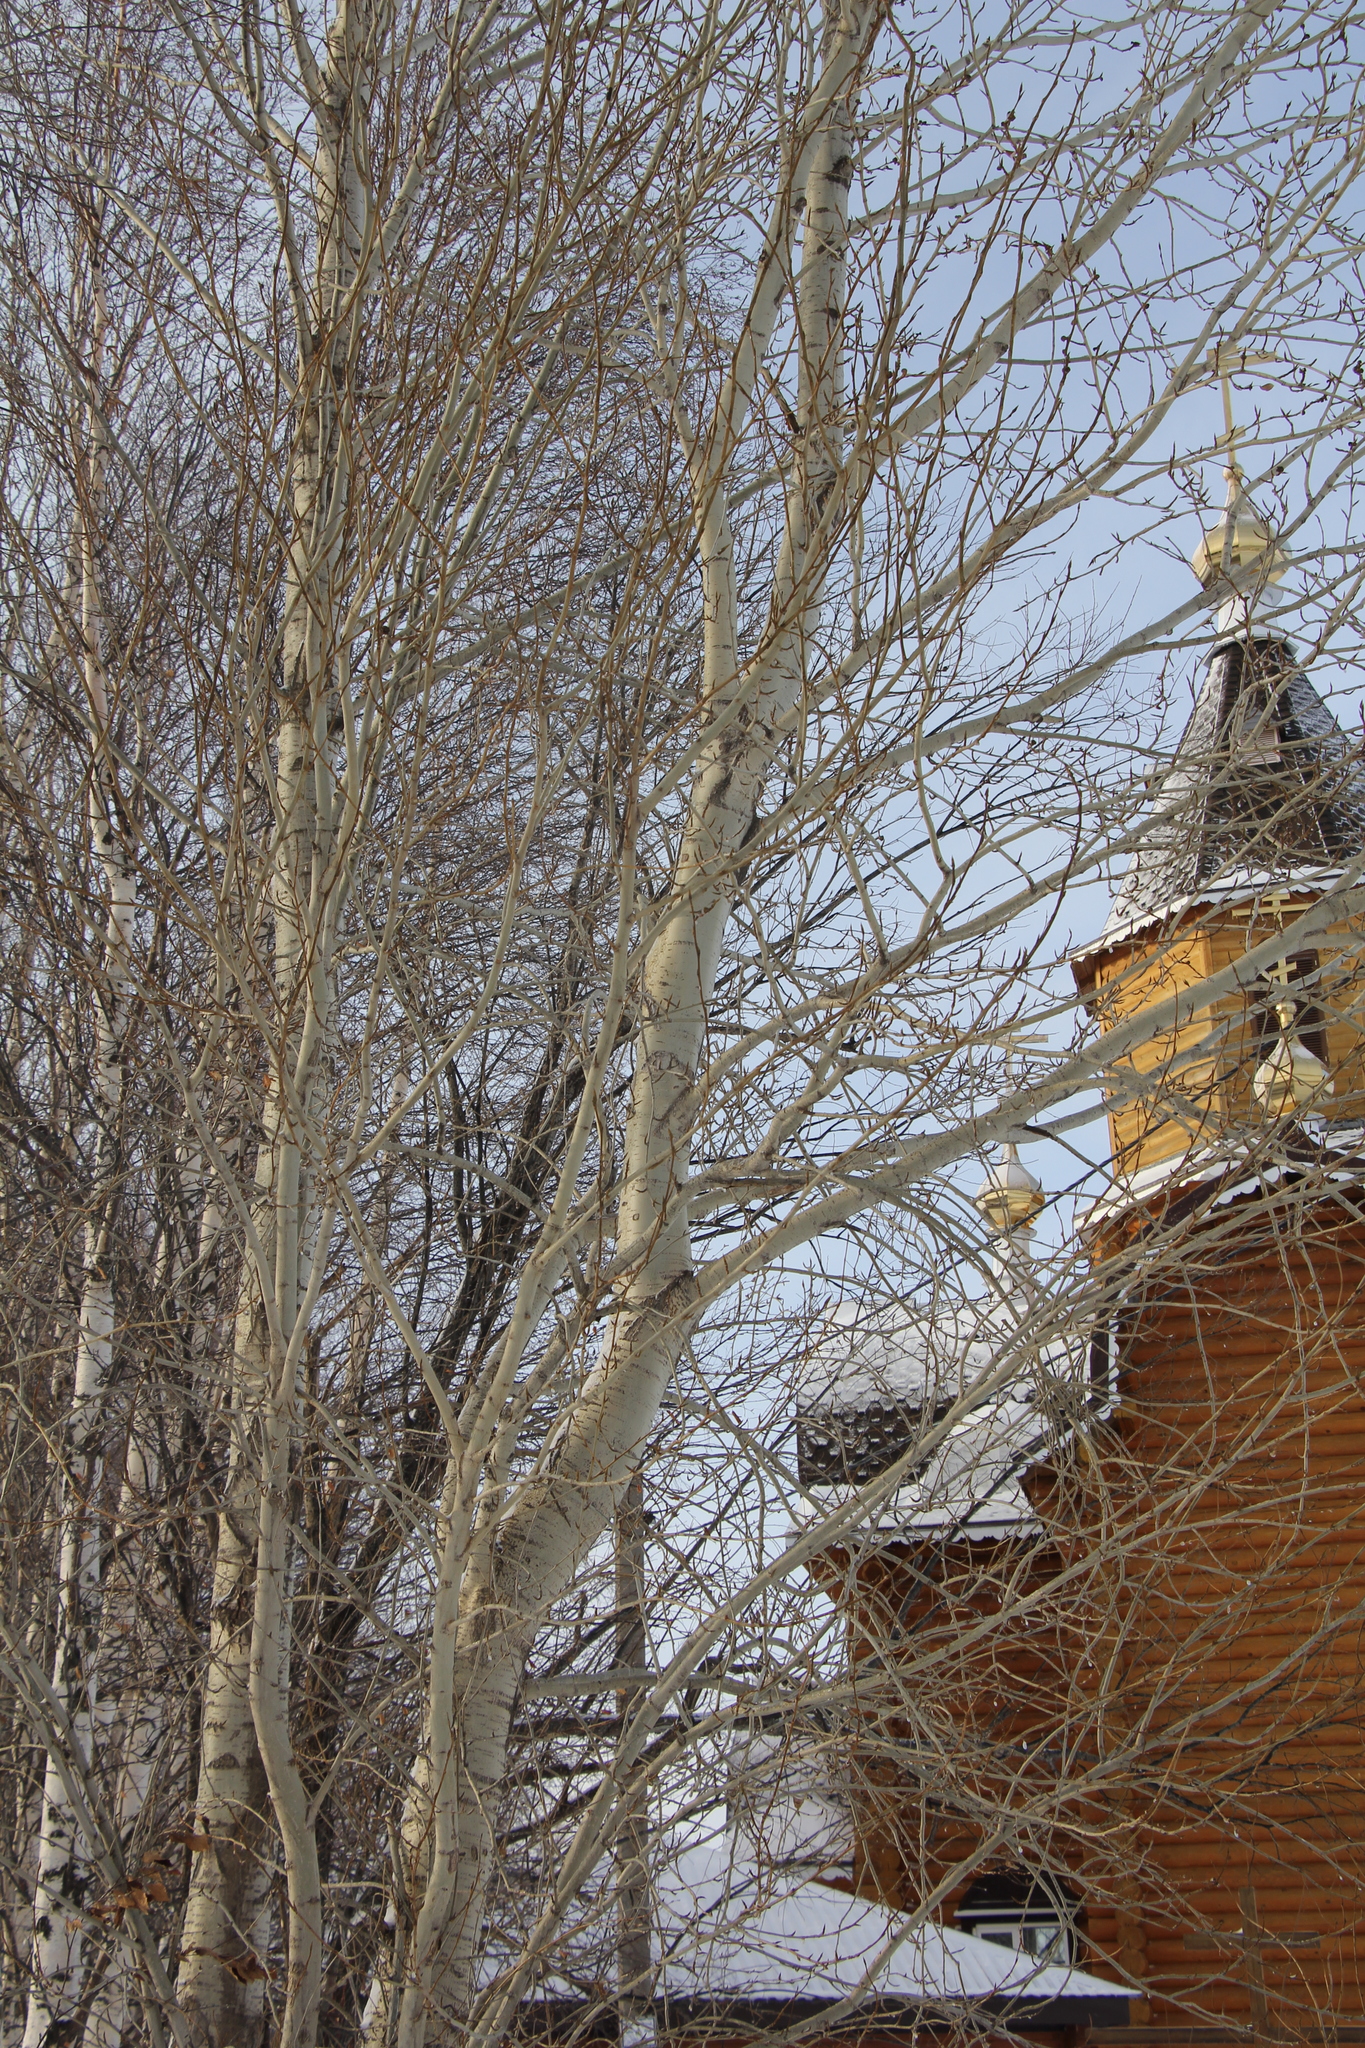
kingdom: Plantae
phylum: Tracheophyta
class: Magnoliopsida
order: Malpighiales
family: Salicaceae
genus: Populus
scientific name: Populus tremula
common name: European aspen
